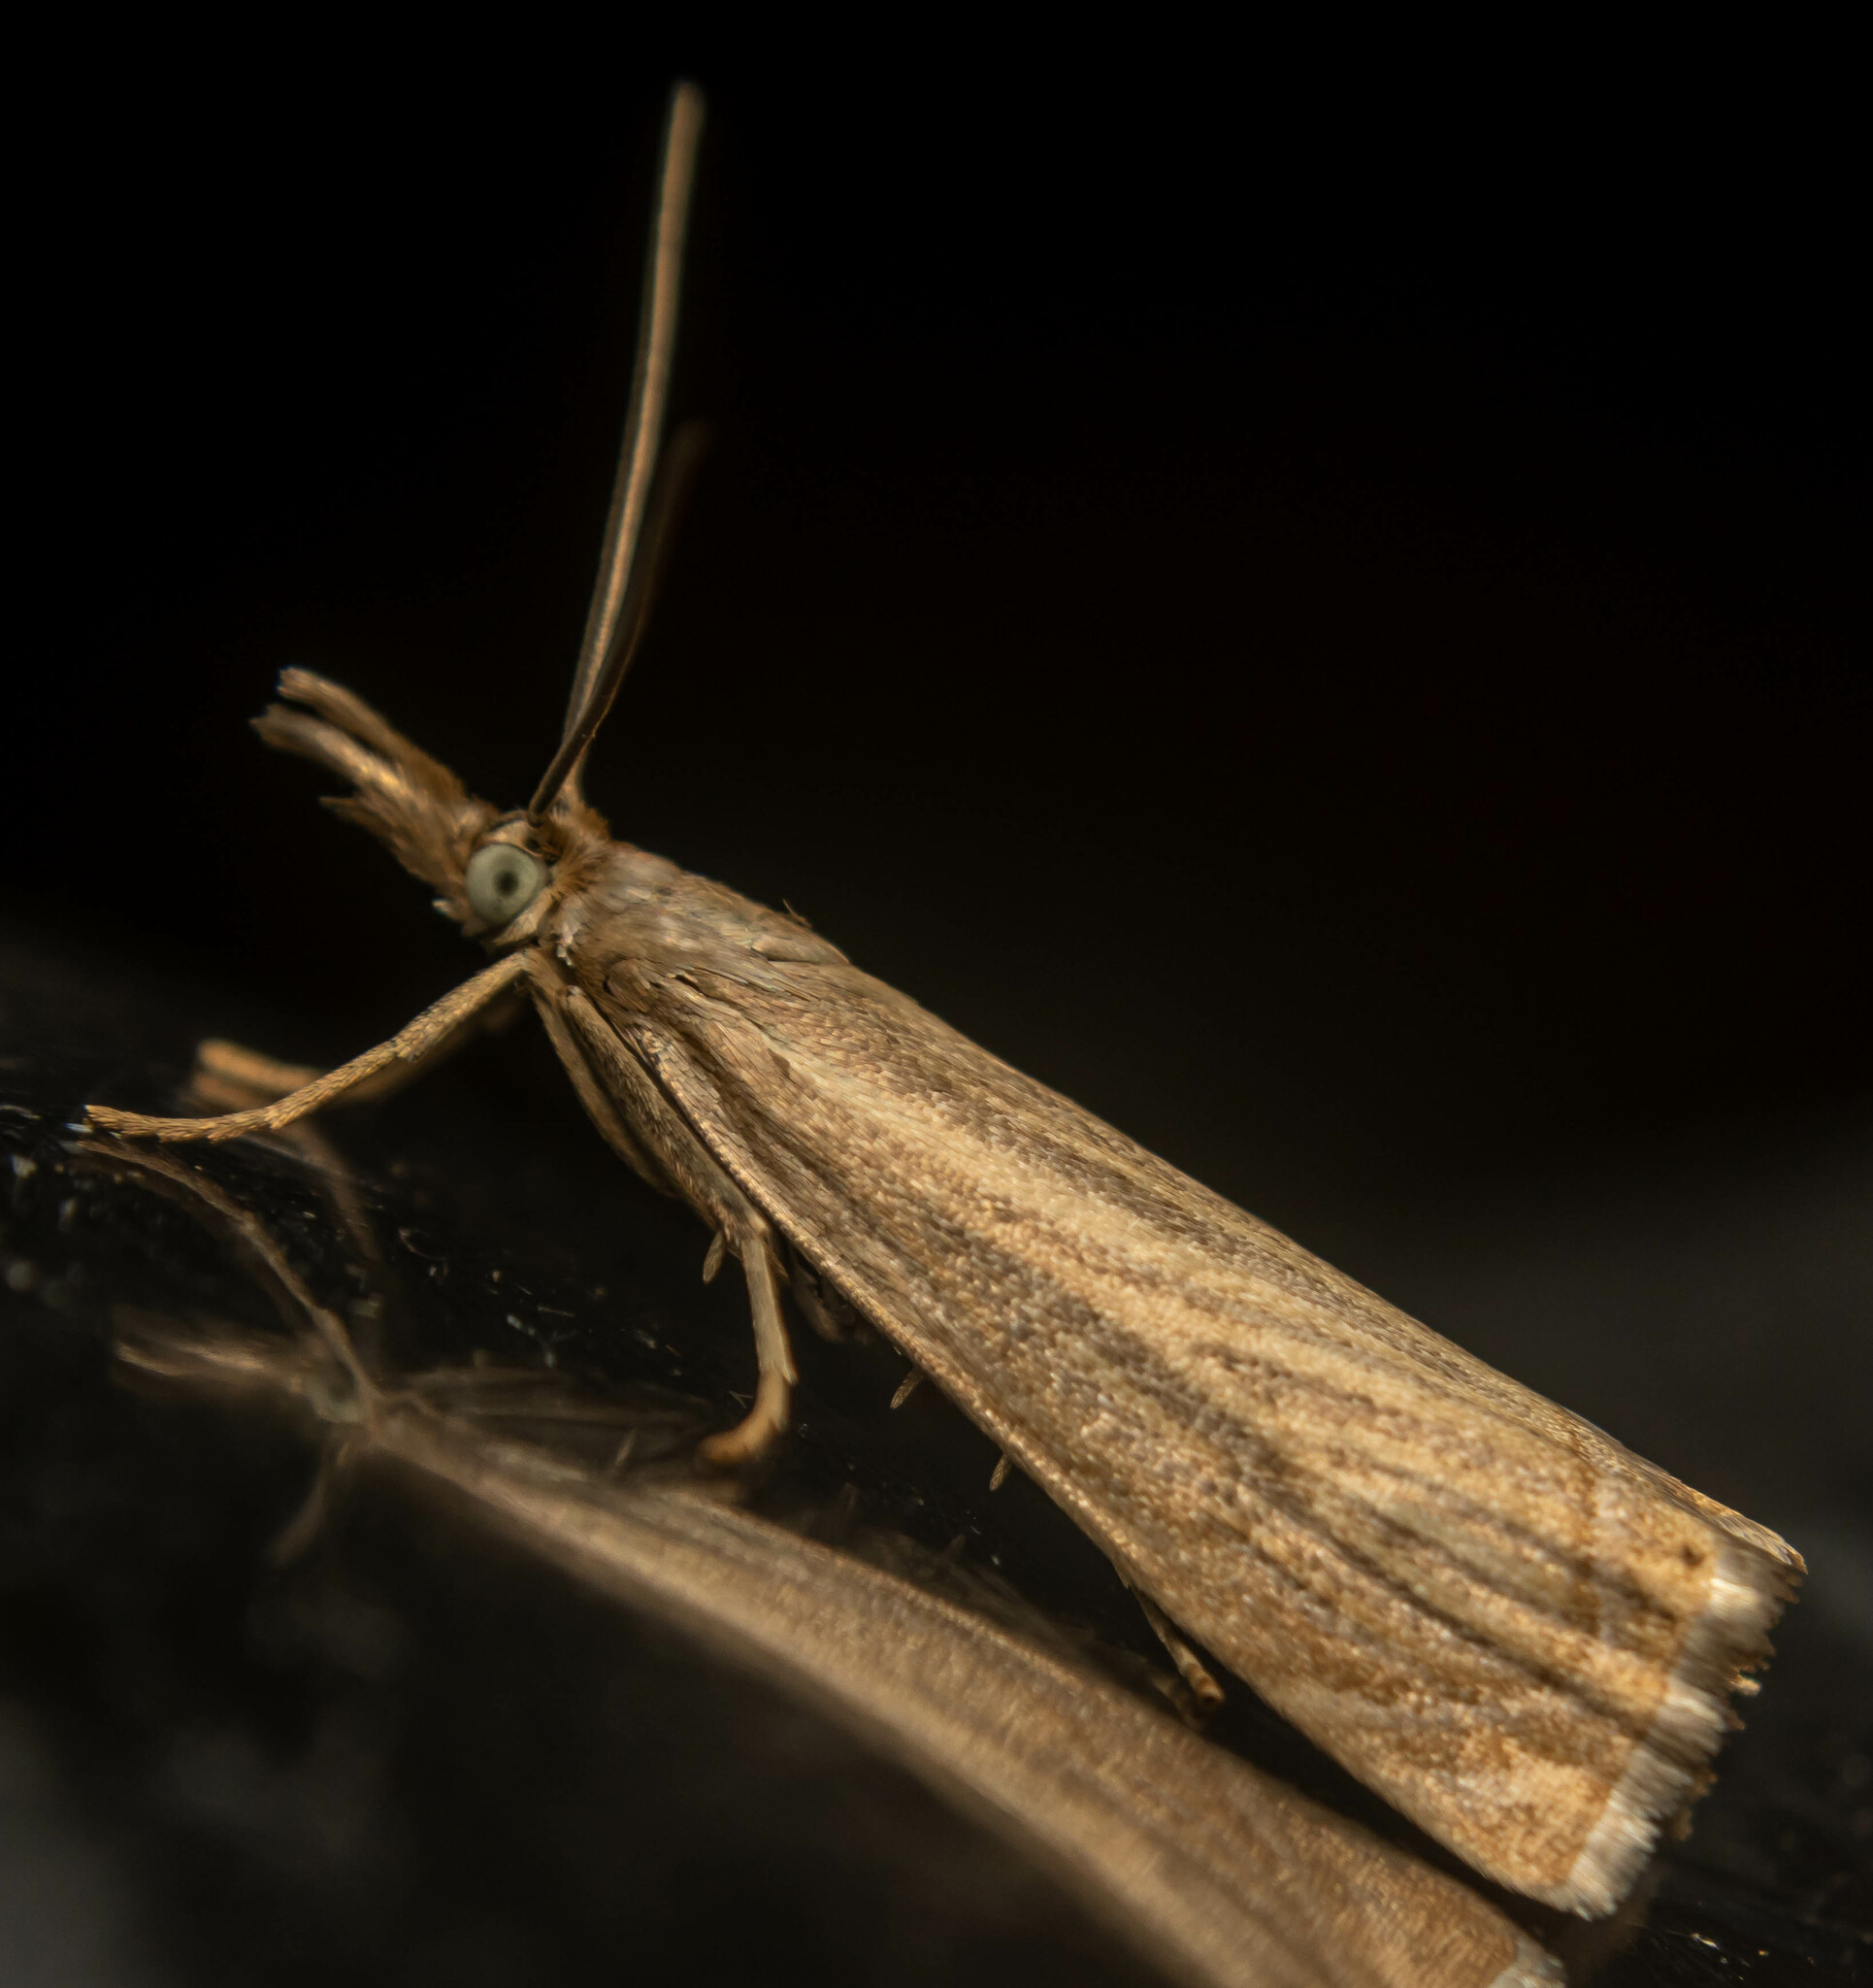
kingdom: Animalia
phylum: Arthropoda
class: Insecta
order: Lepidoptera
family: Crambidae
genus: Chrysoteuchia
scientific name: Chrysoteuchia culmella
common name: Garden grass-veneer
